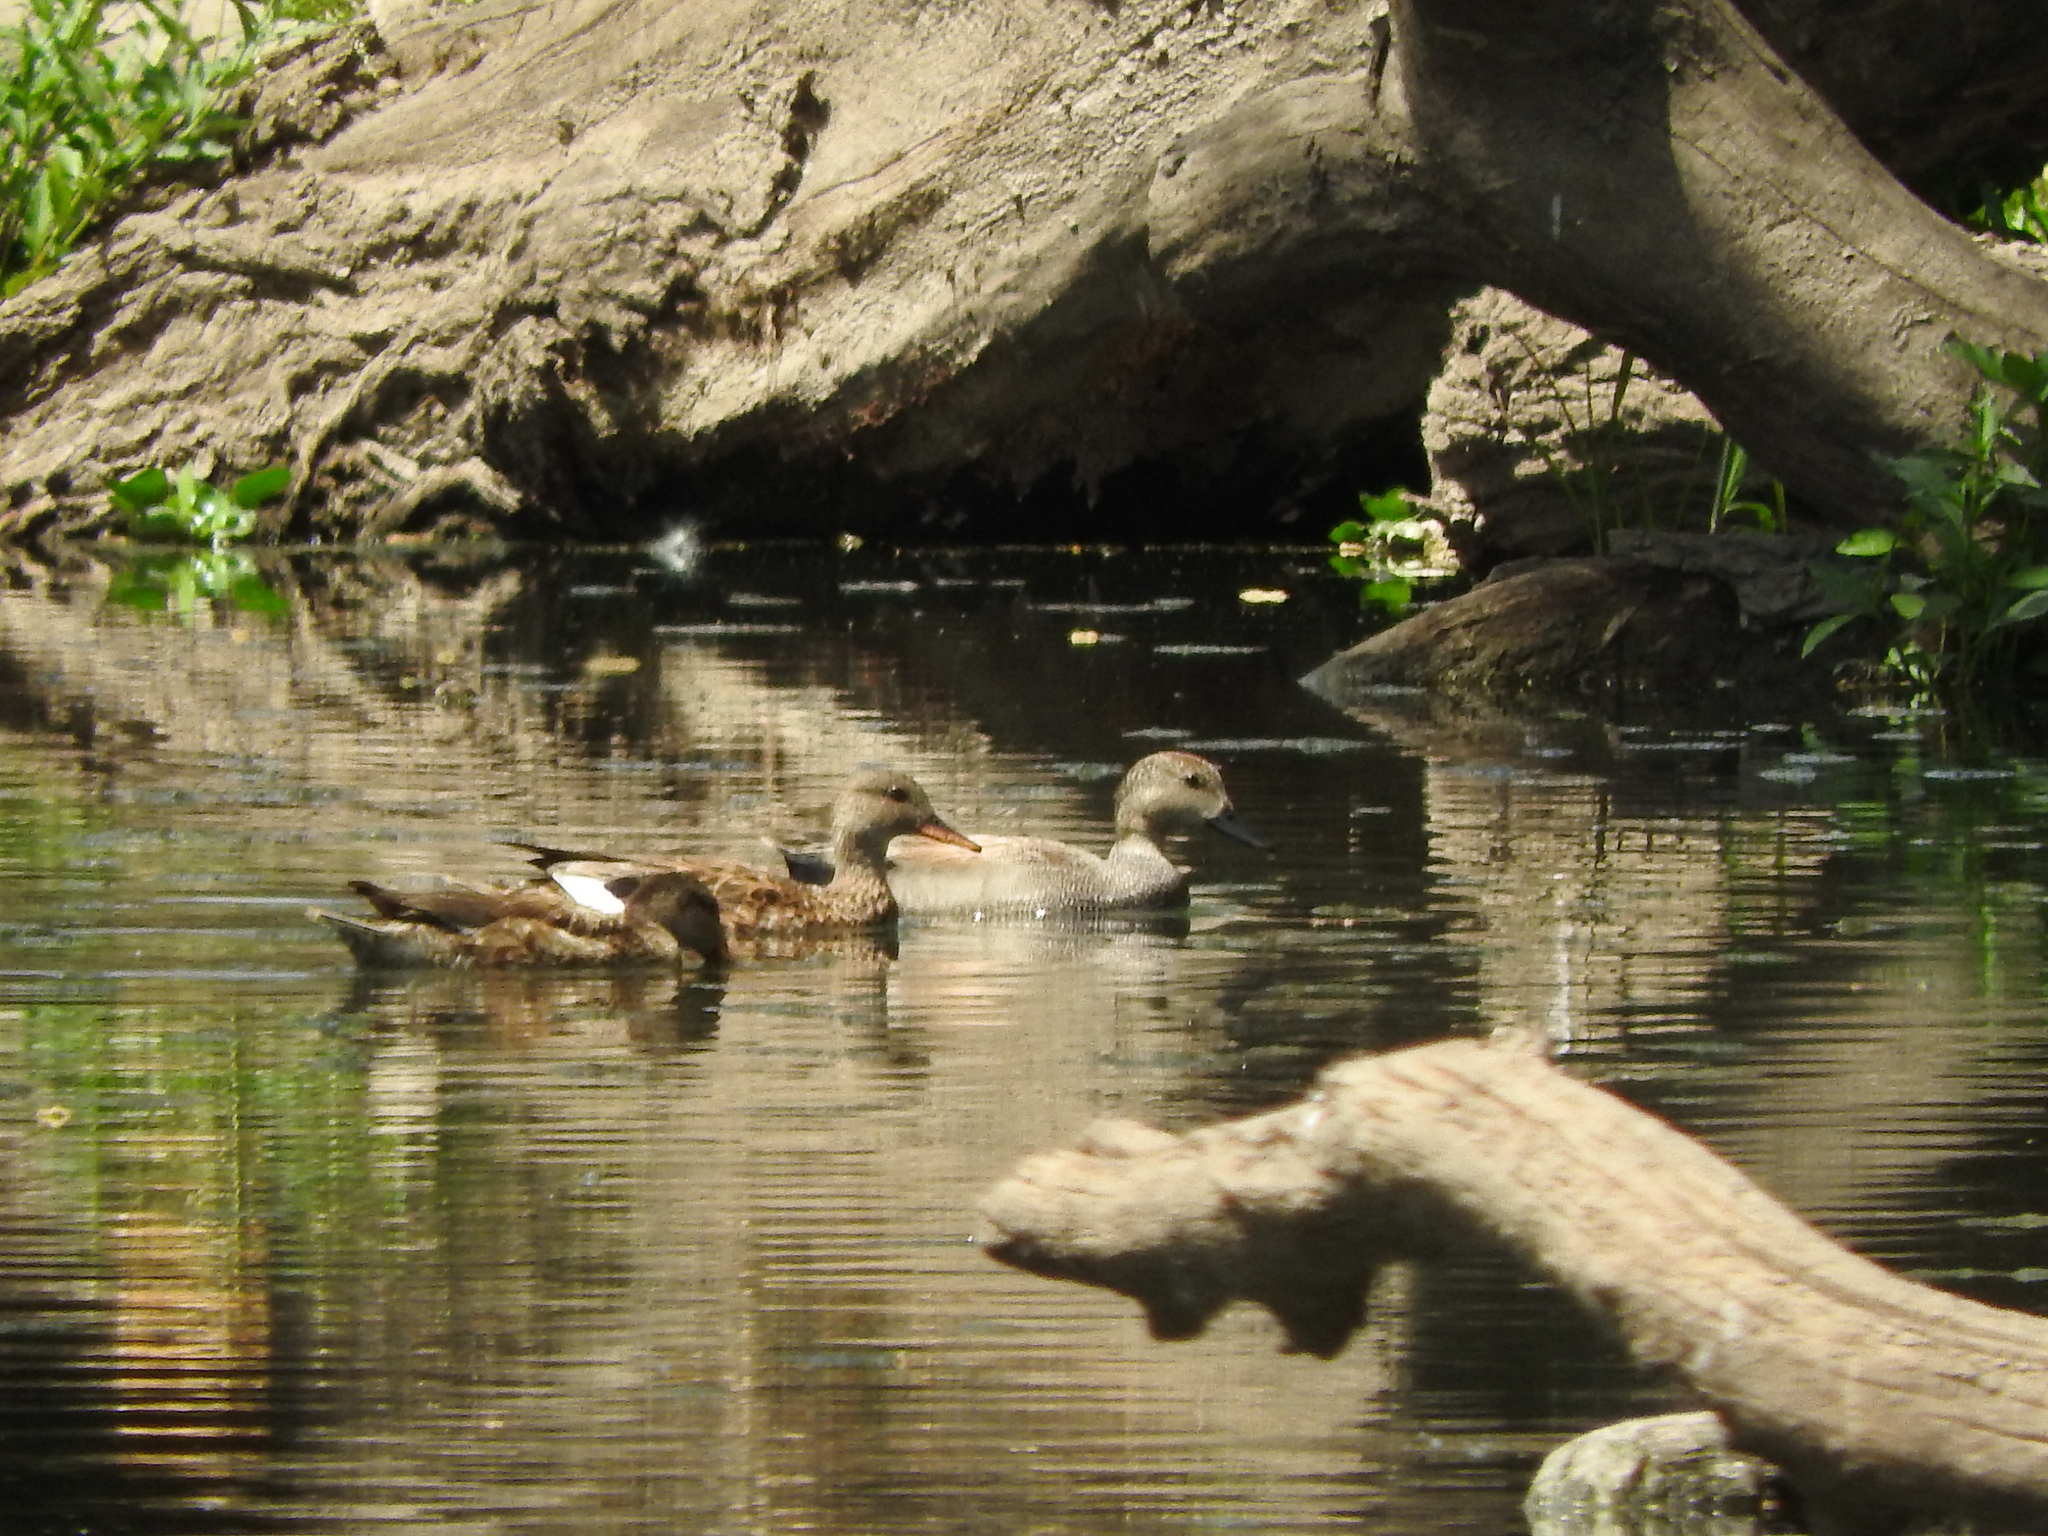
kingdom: Animalia
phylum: Chordata
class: Aves
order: Anseriformes
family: Anatidae
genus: Anas
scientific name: Anas diazi
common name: Mexican duck
